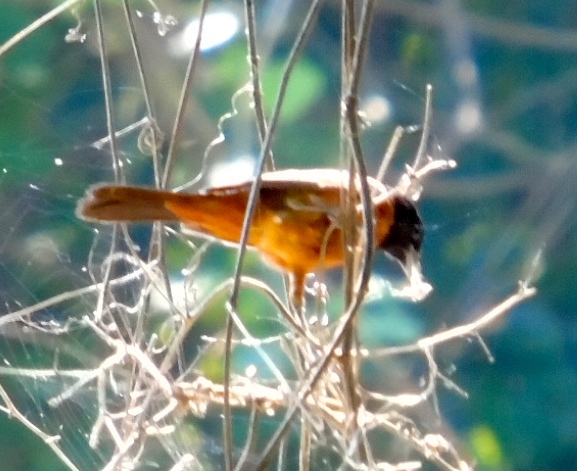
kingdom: Animalia
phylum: Chordata
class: Aves
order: Passeriformes
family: Icteridae
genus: Icterus
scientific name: Icterus spurius
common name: Orchard oriole
